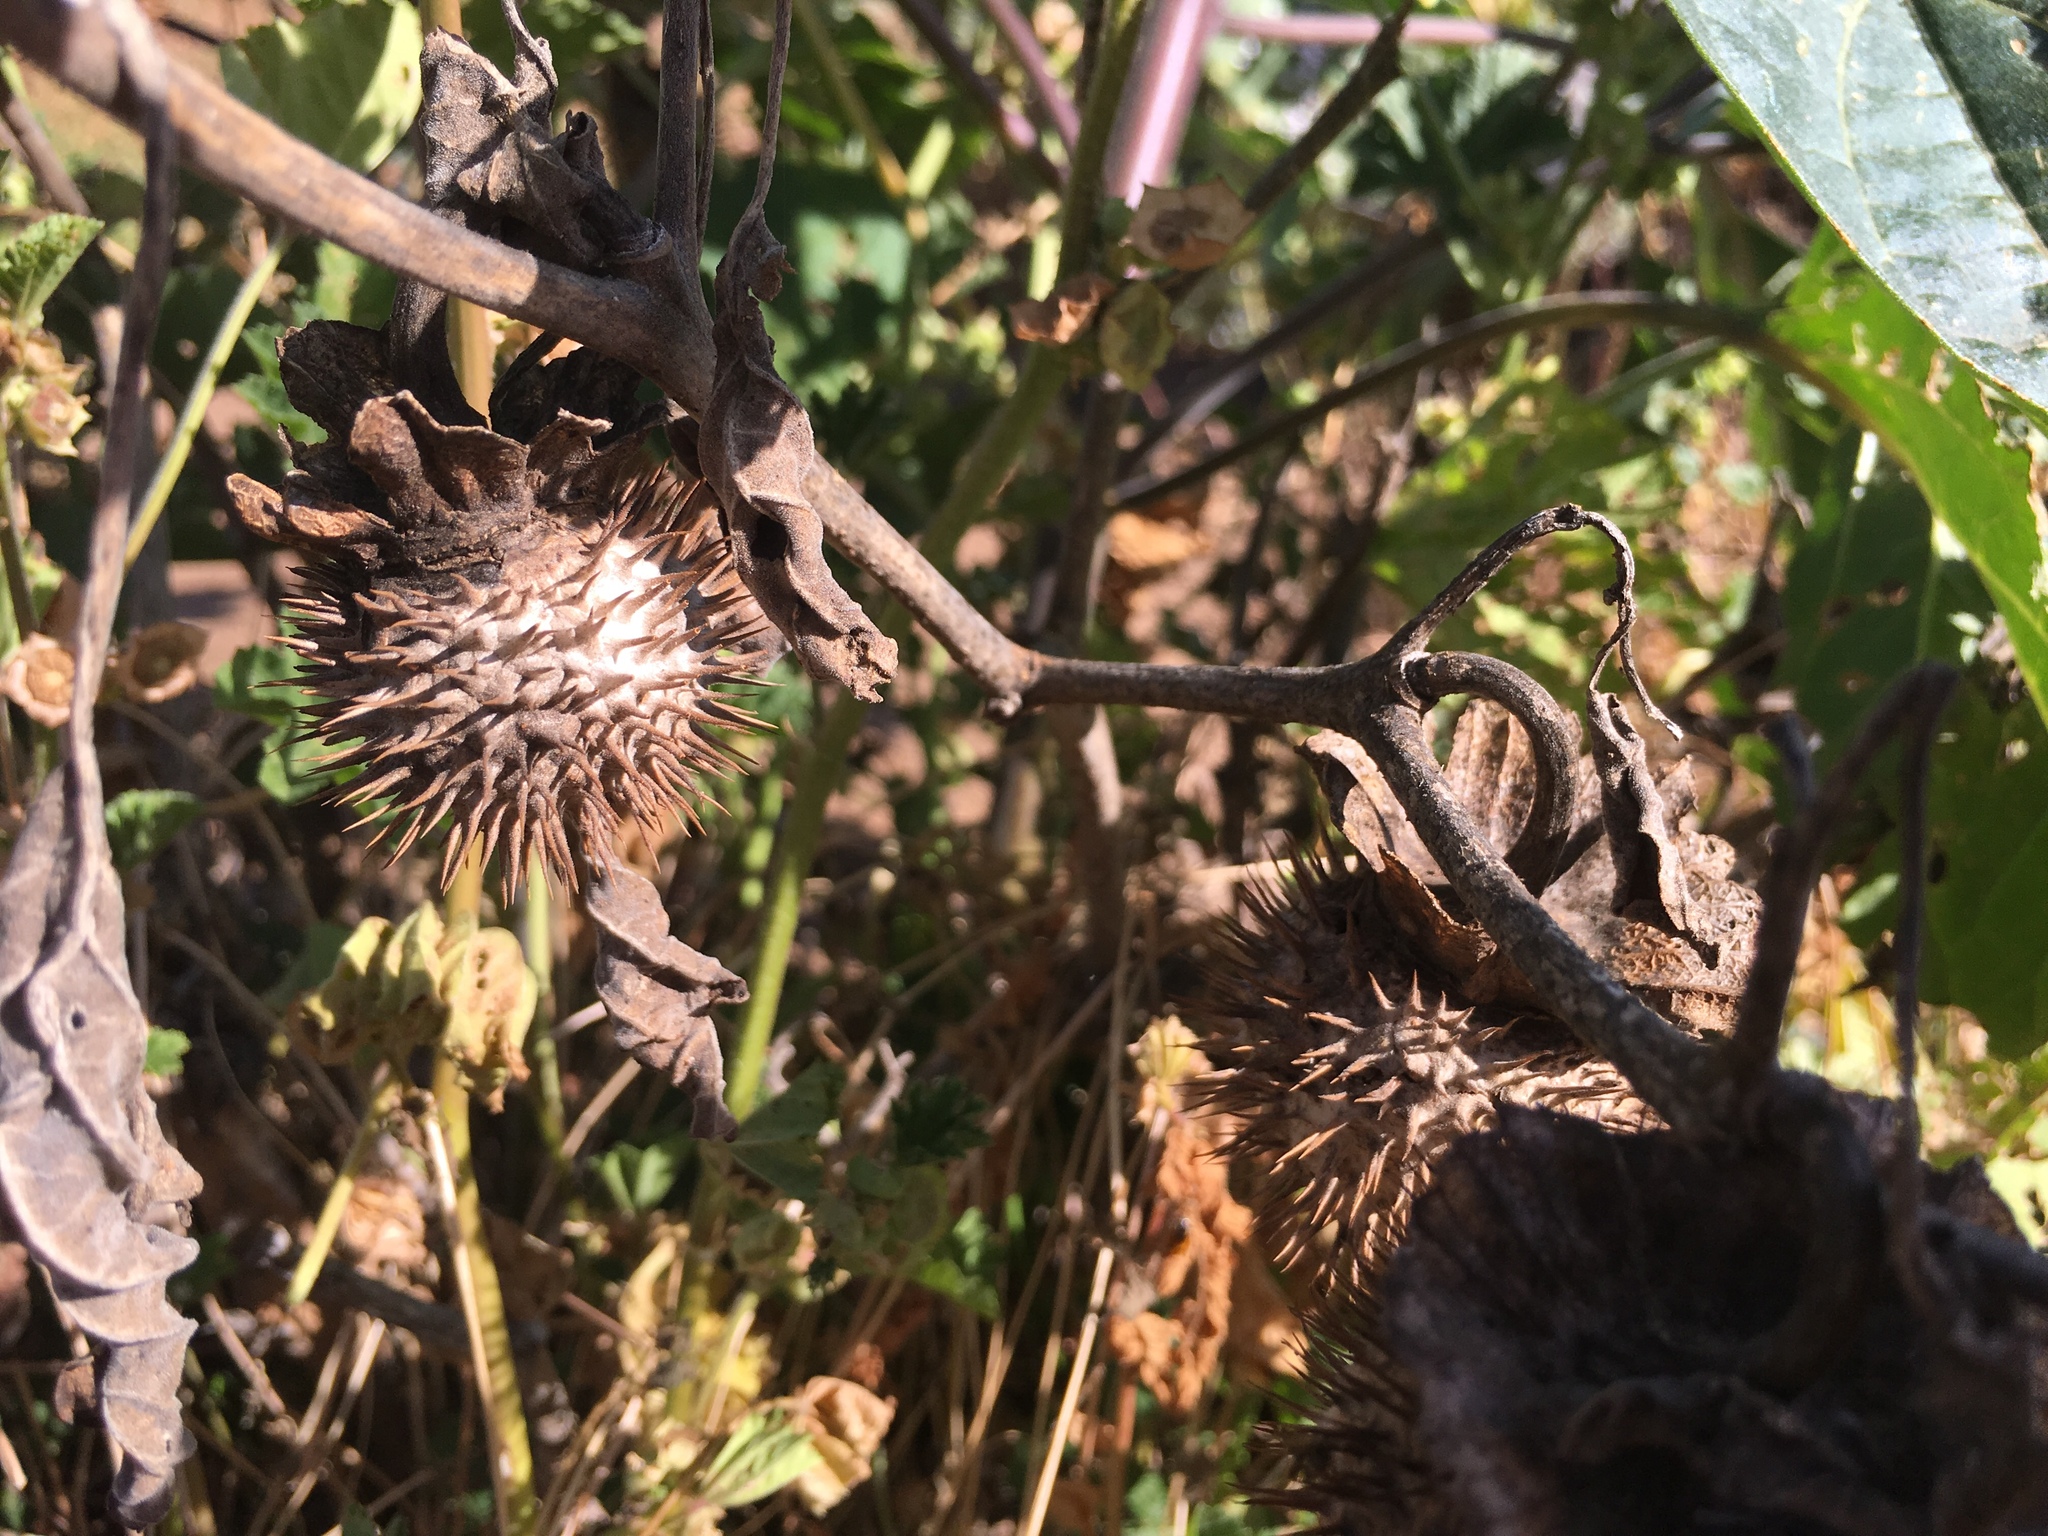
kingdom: Plantae
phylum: Tracheophyta
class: Magnoliopsida
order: Solanales
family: Solanaceae
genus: Datura
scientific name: Datura wrightii
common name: Sacred thorn-apple
